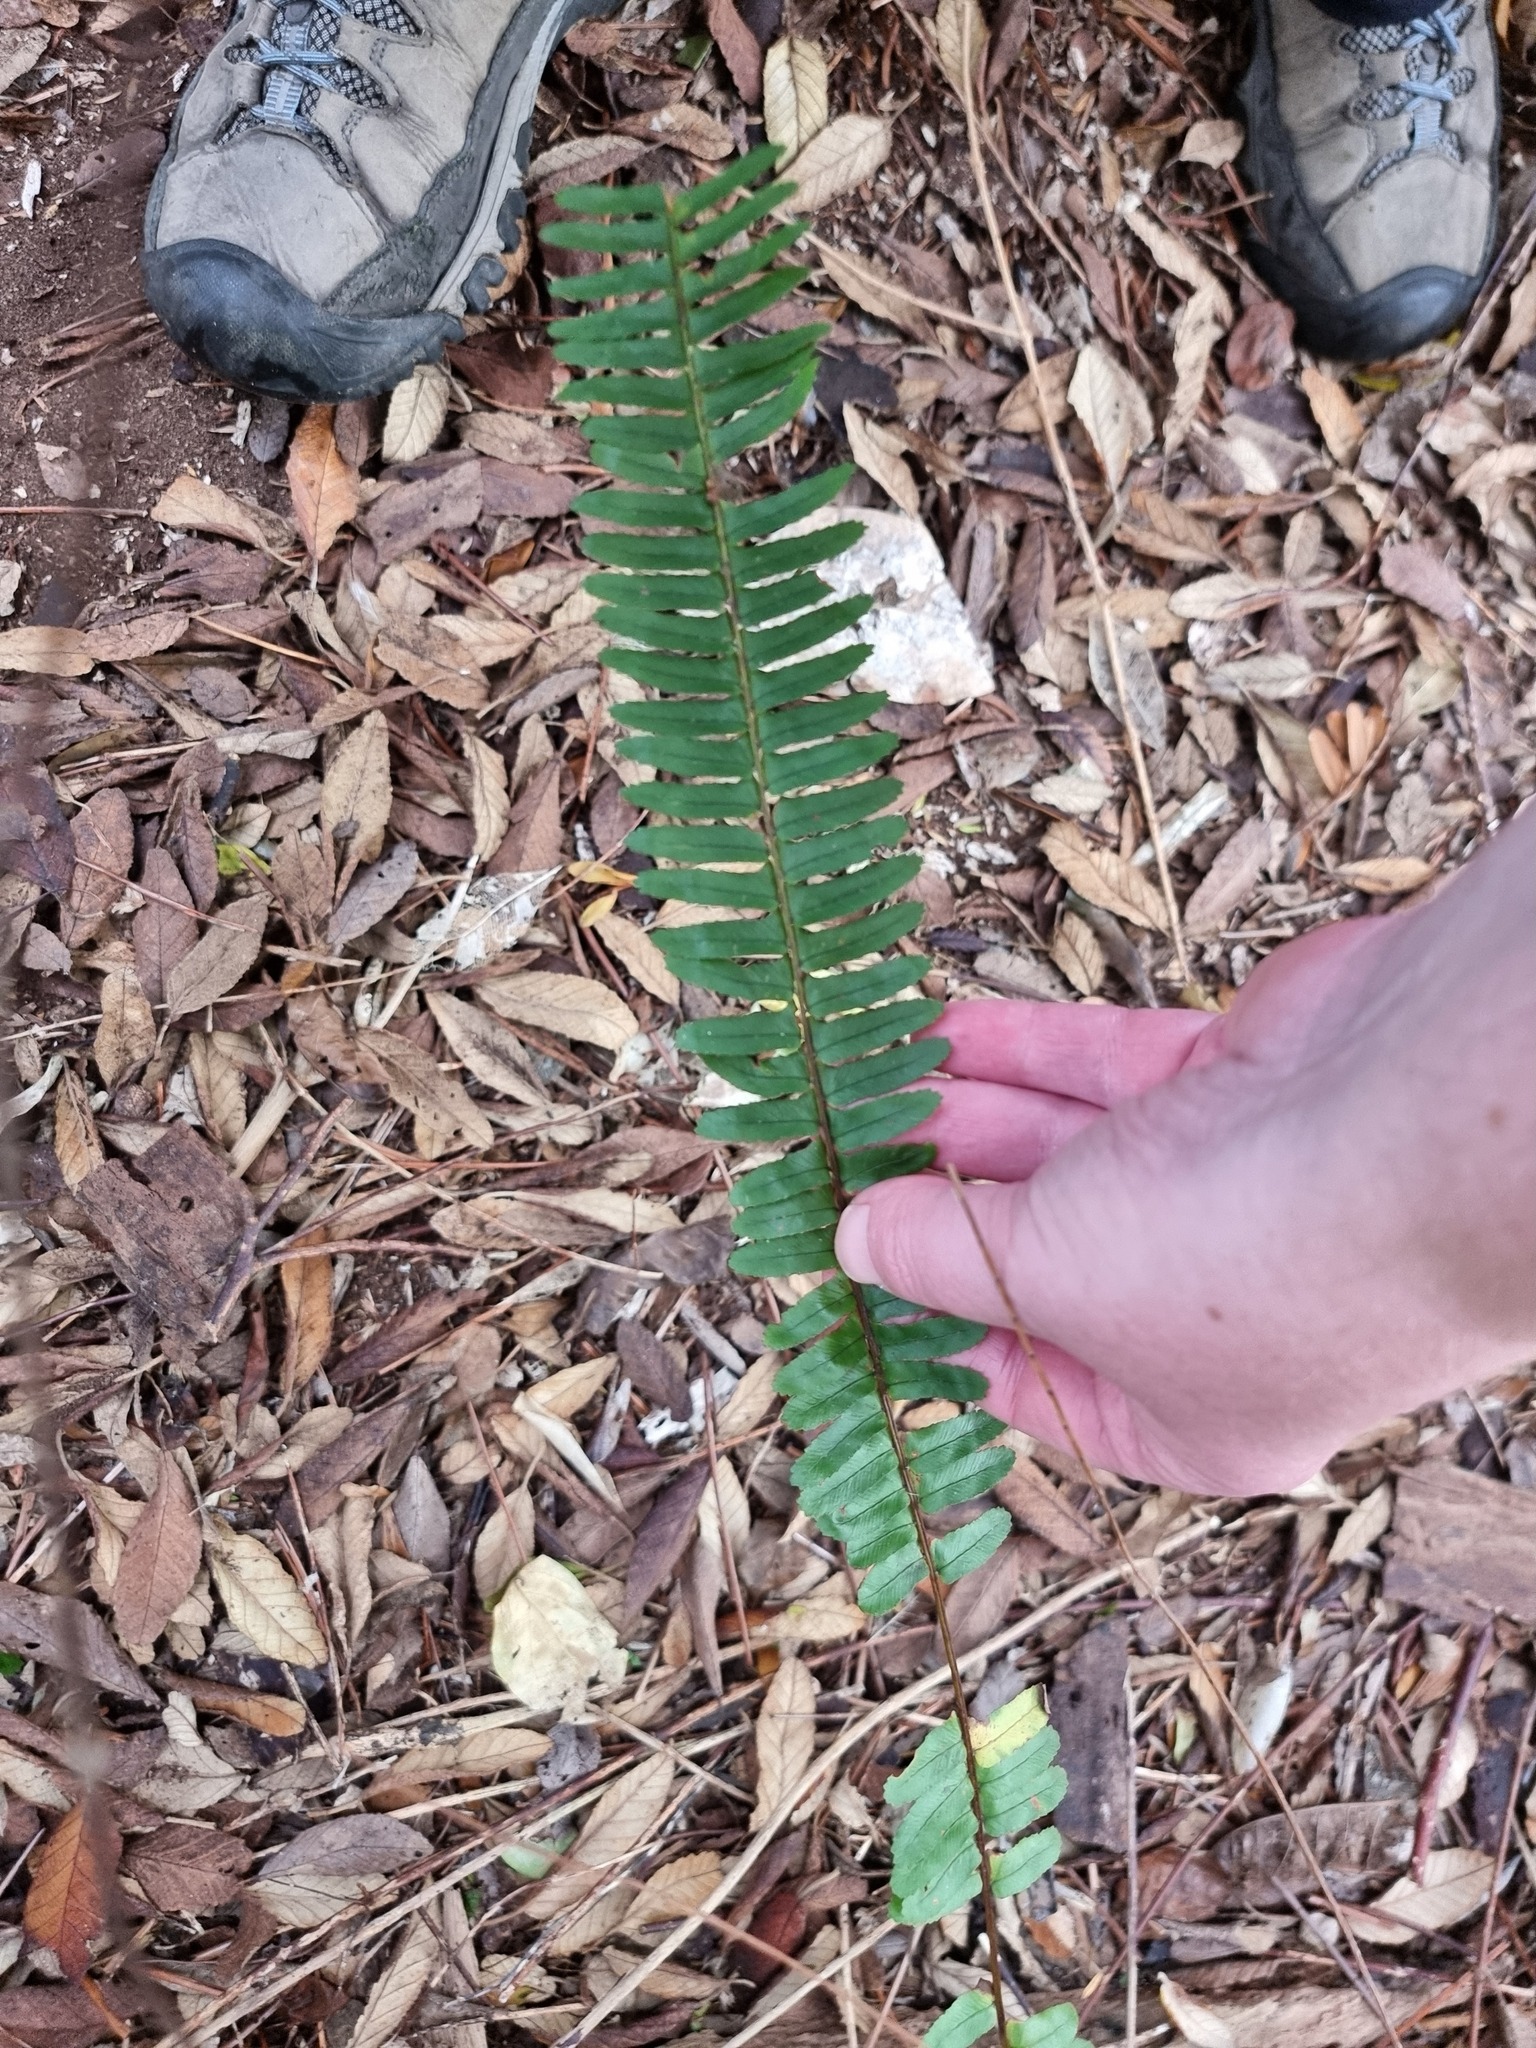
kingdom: Plantae
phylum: Tracheophyta
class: Polypodiopsida
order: Polypodiales
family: Nephrolepidaceae
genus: Nephrolepis
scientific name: Nephrolepis cordifolia
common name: Narrow swordfern
